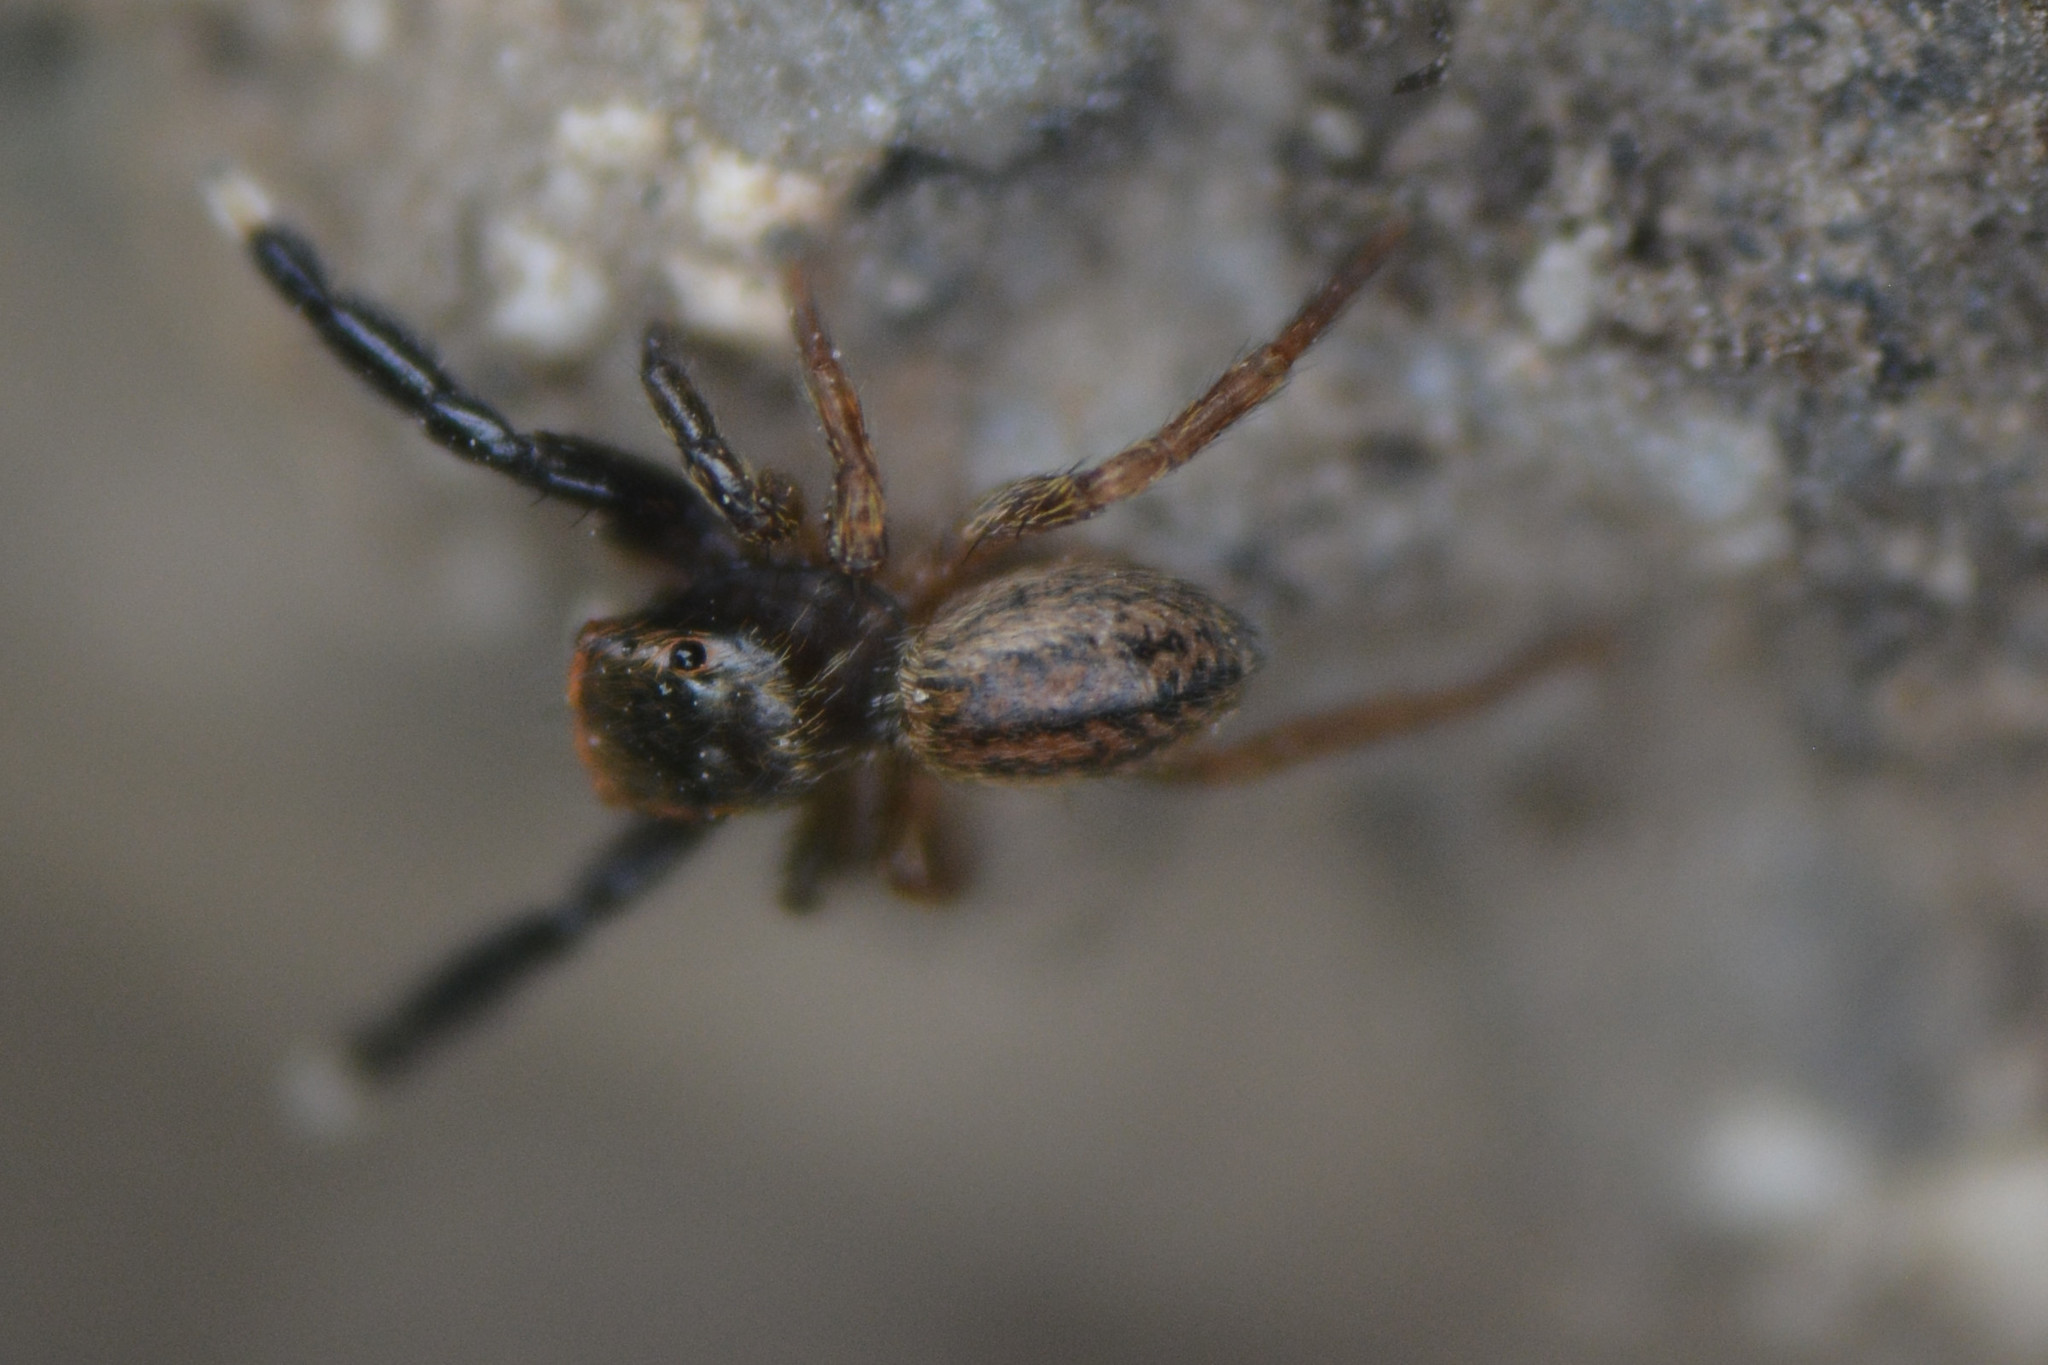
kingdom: Animalia
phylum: Arthropoda
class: Arachnida
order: Araneae
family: Salticidae
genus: Euophrys
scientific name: Euophrys frontalis
